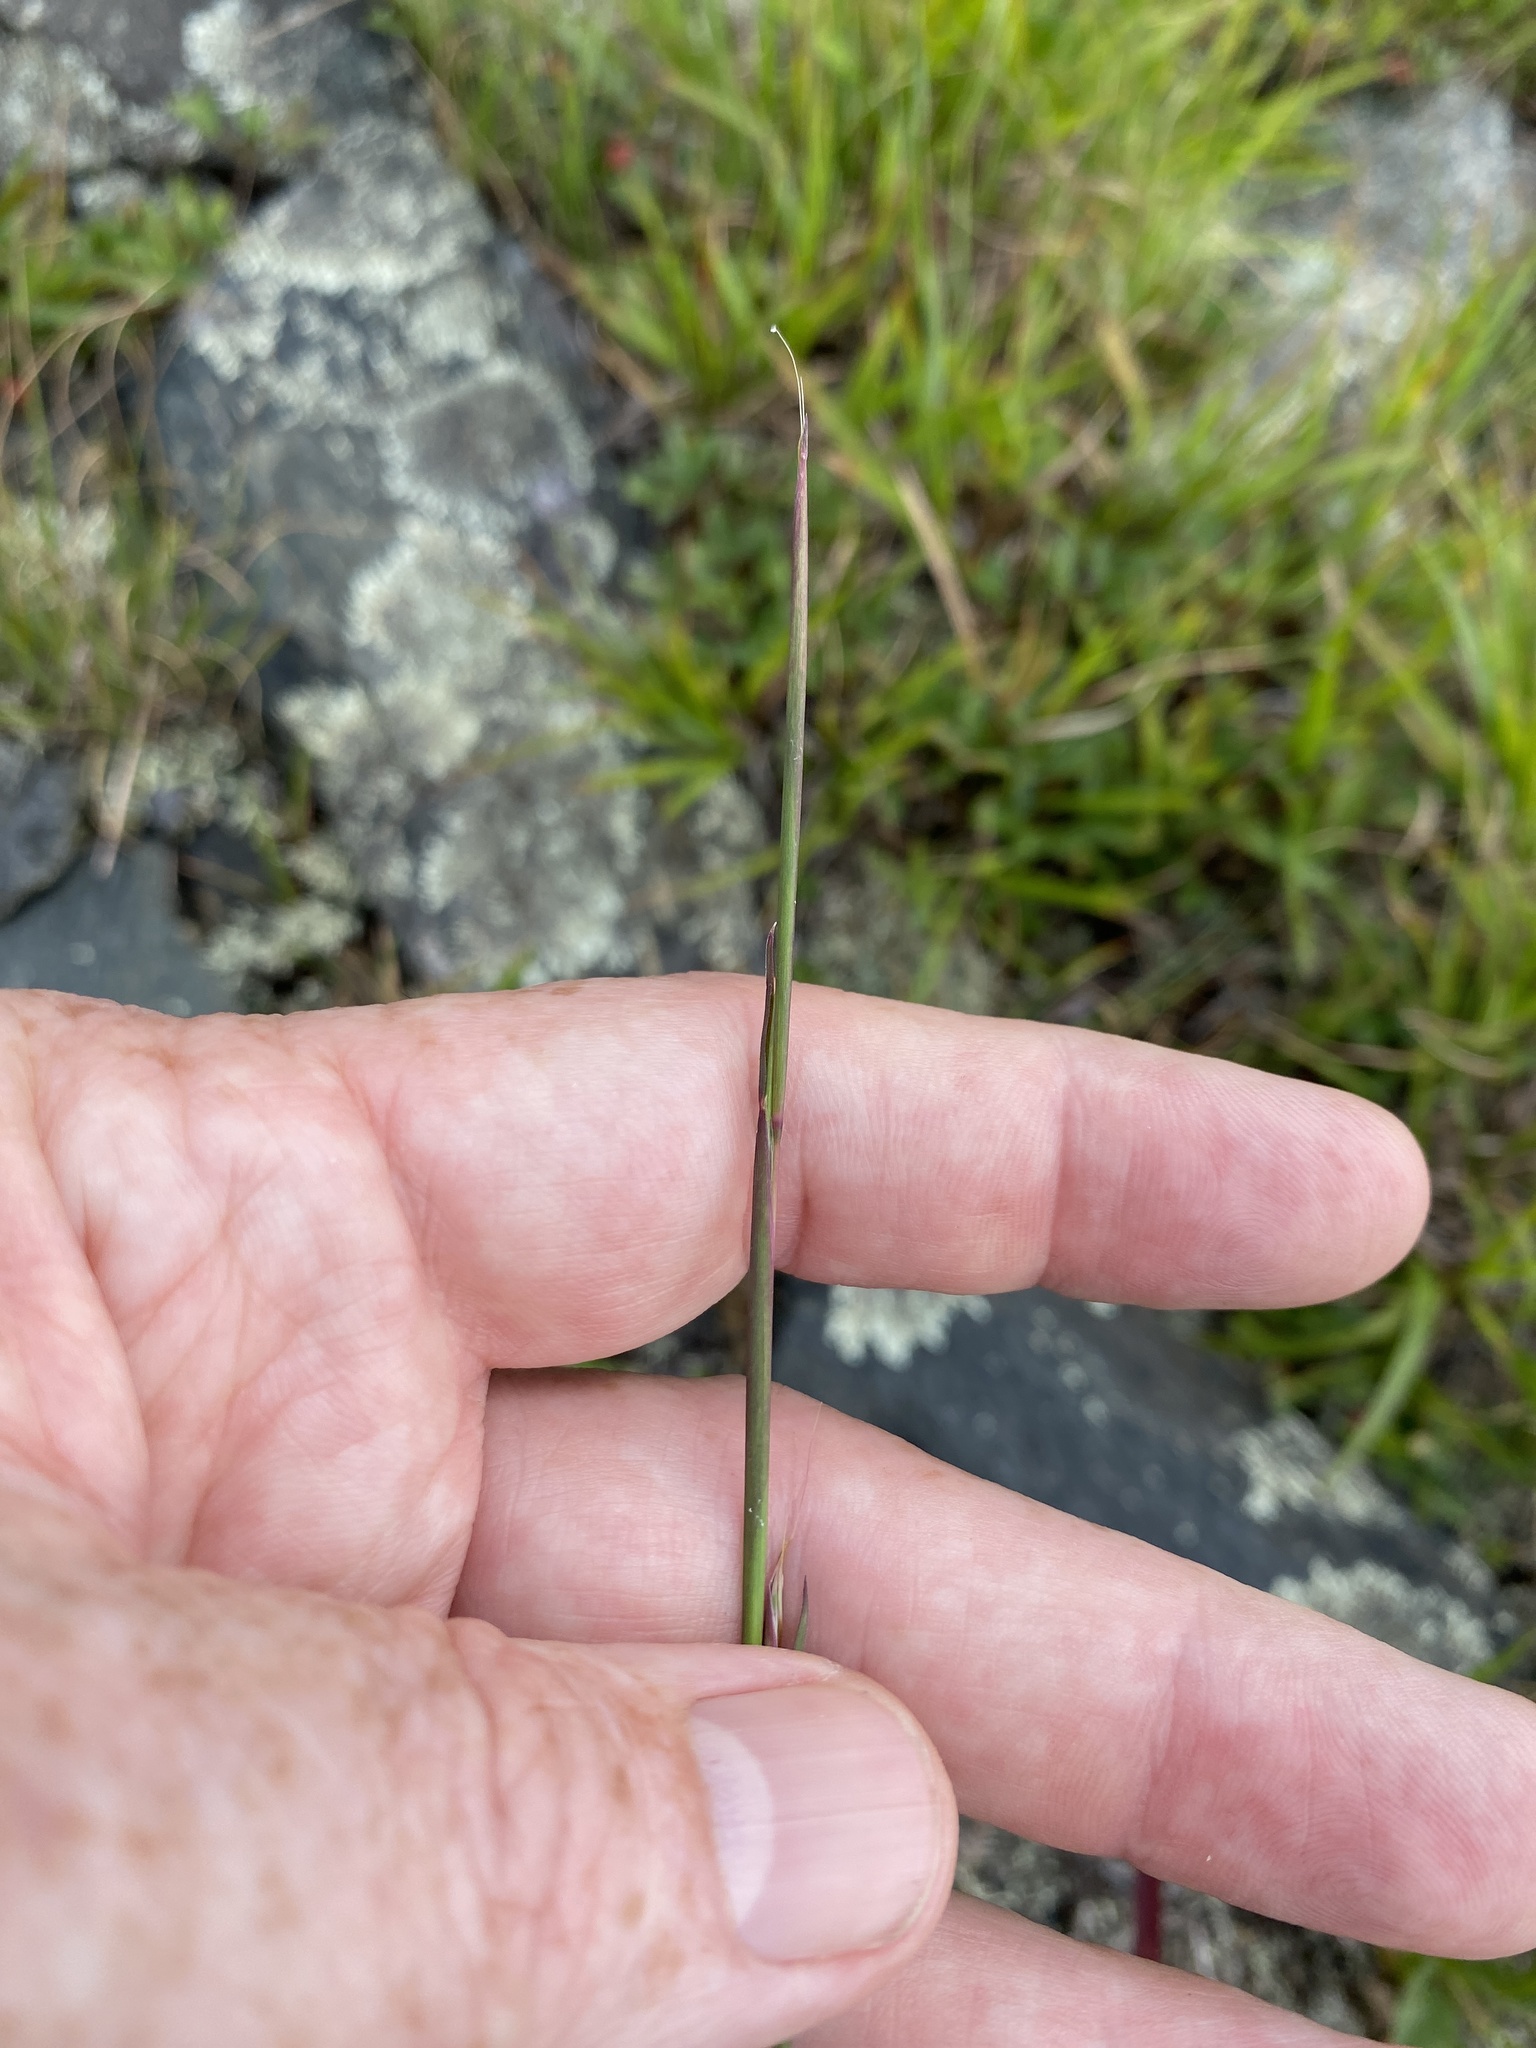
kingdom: Plantae
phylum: Tracheophyta
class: Liliopsida
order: Poales
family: Poaceae
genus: Schizachyrium
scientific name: Schizachyrium scoparium
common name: Little bluestem
